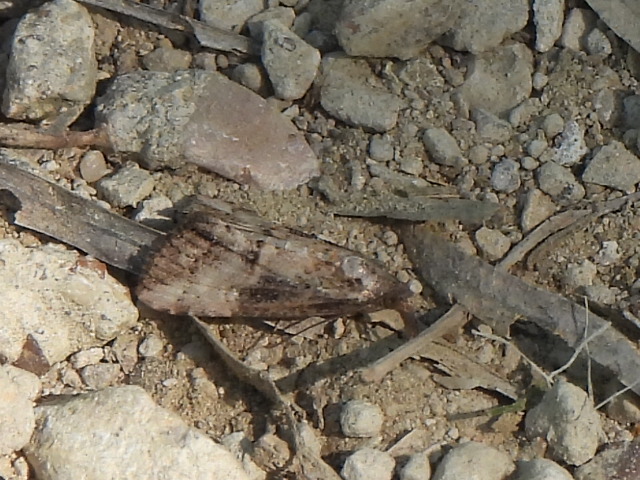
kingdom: Animalia
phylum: Arthropoda
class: Insecta
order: Lepidoptera
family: Erebidae
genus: Hypena
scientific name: Hypena scabra
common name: Green cloverworm
